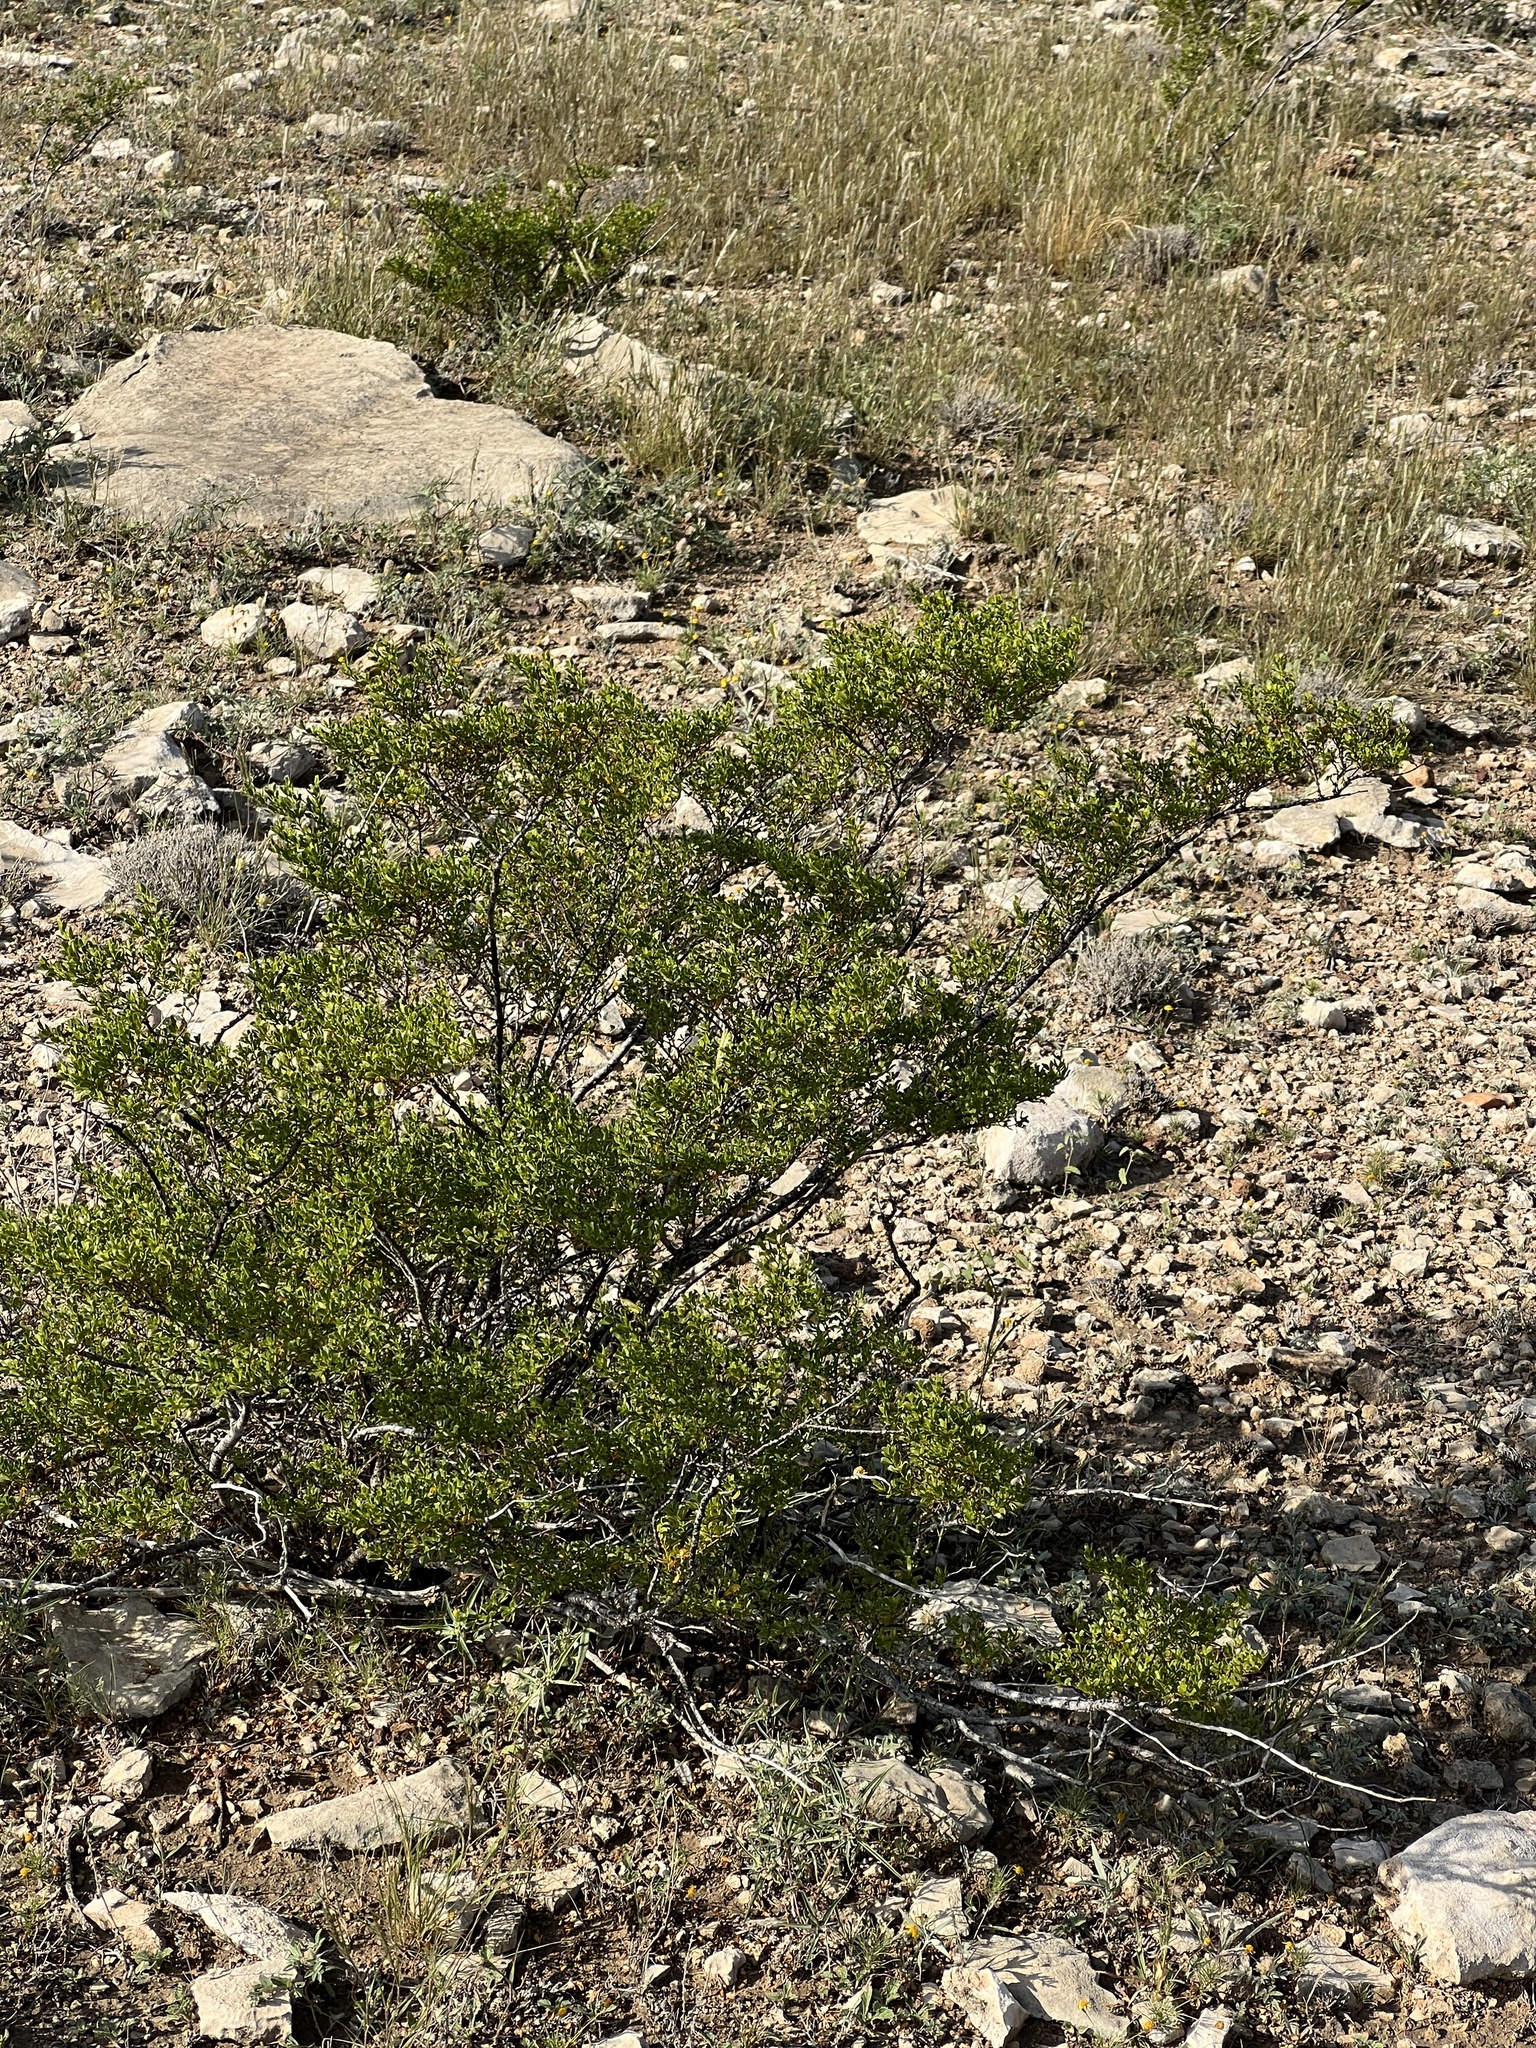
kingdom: Plantae
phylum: Tracheophyta
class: Magnoliopsida
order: Zygophyllales
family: Zygophyllaceae
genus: Larrea
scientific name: Larrea tridentata
